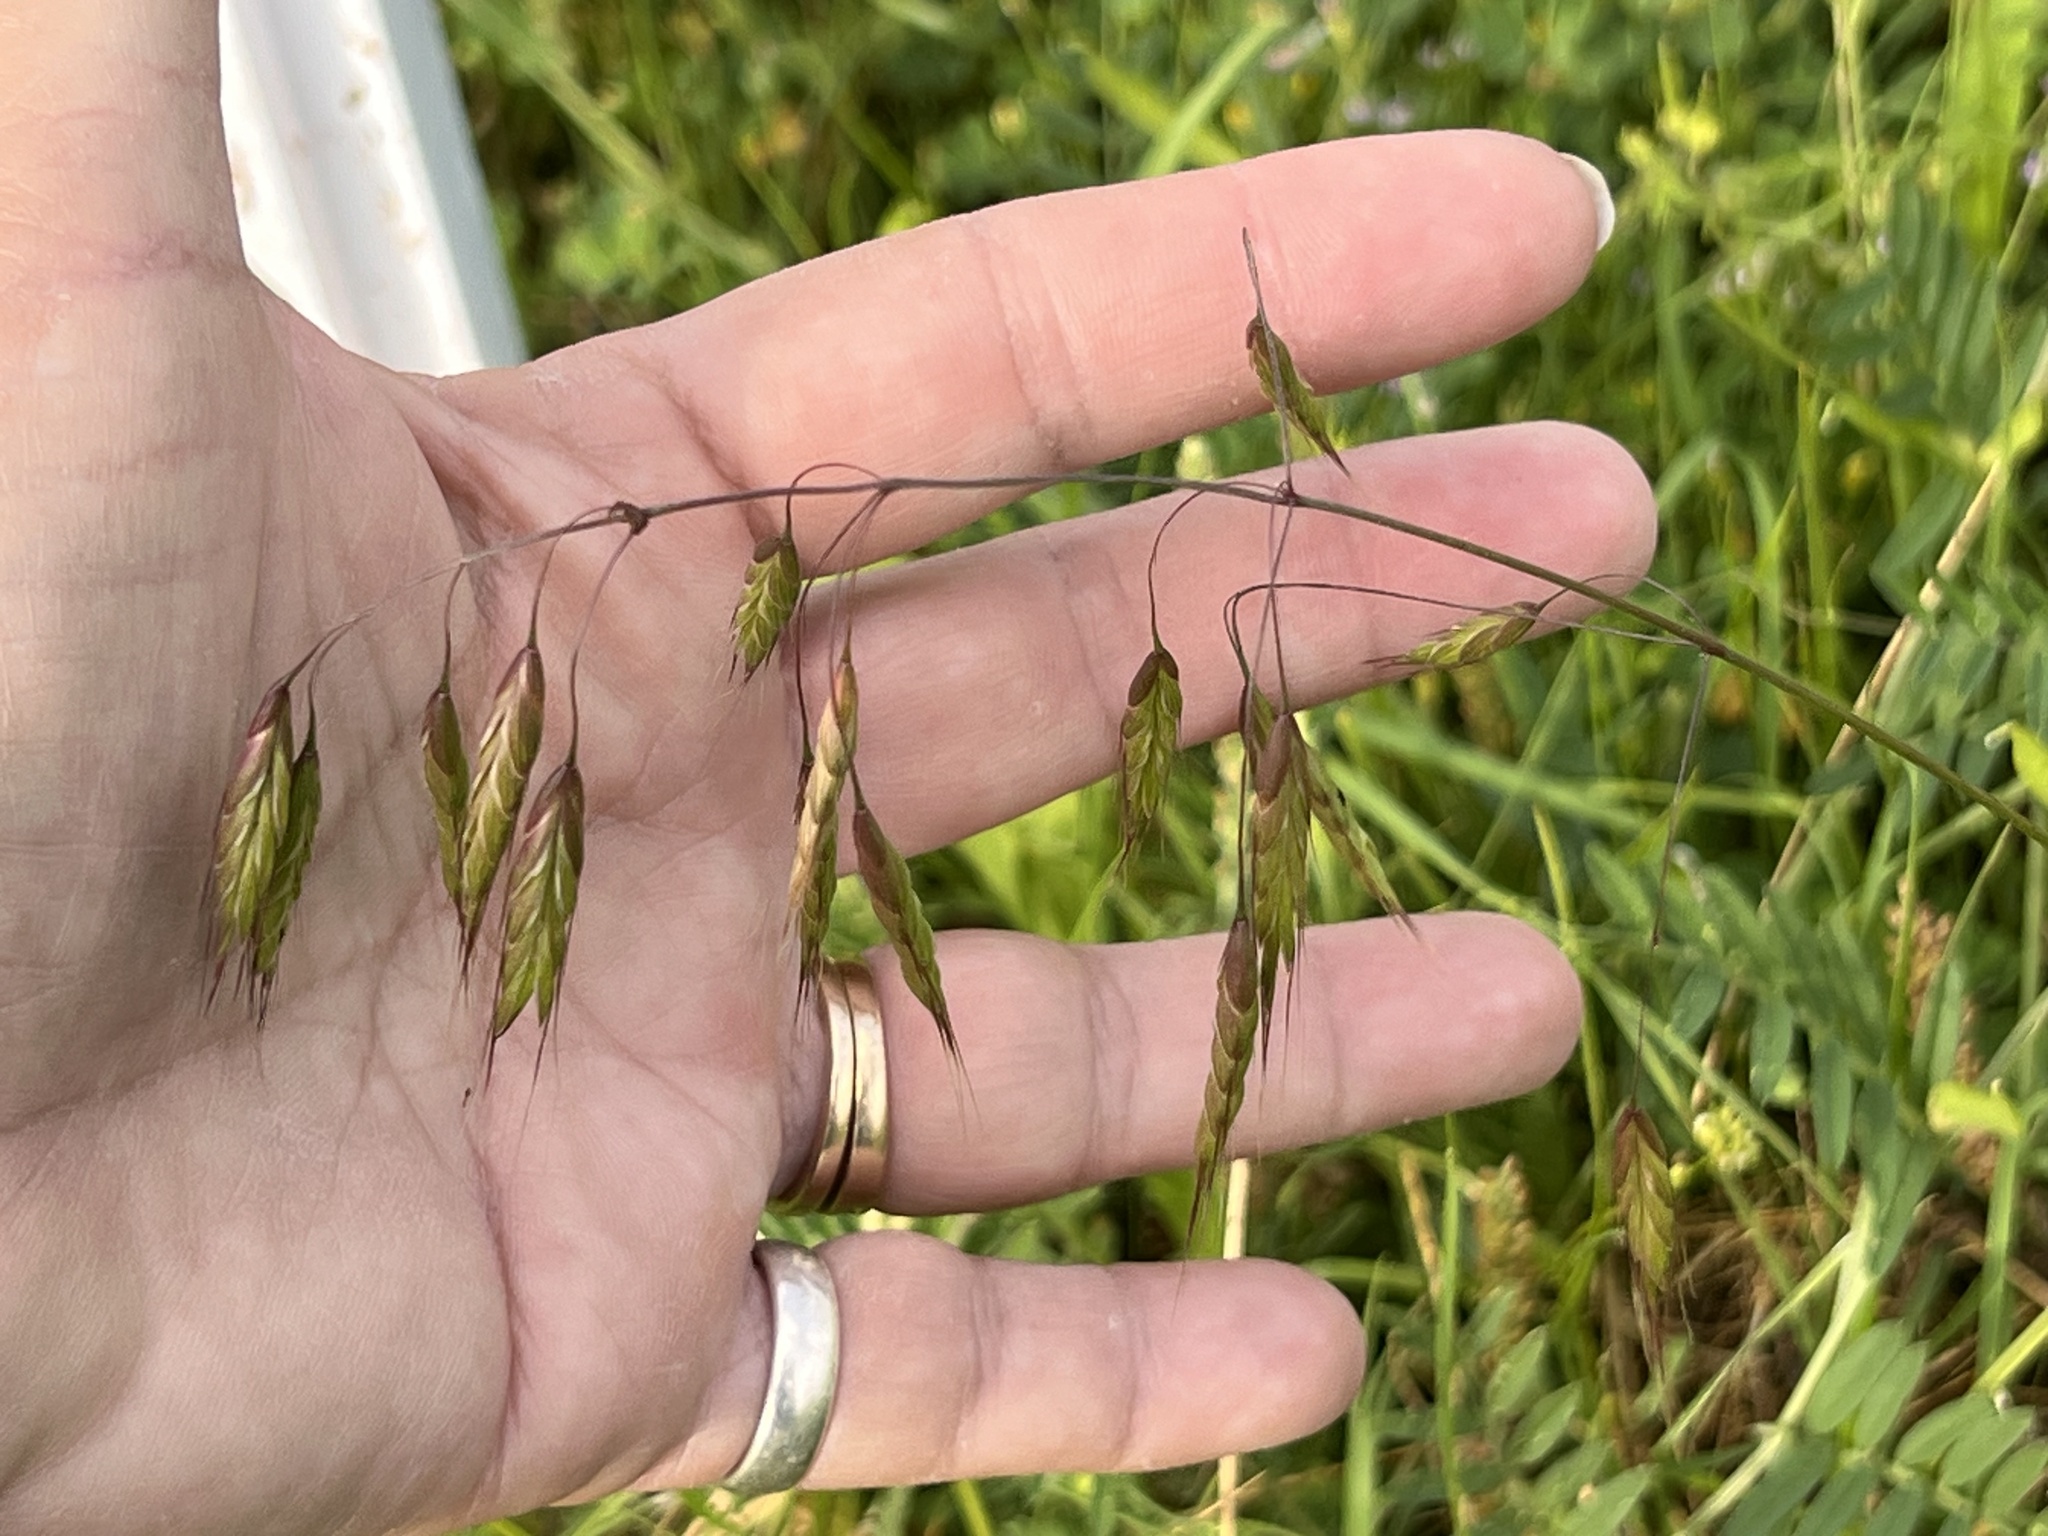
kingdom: Plantae
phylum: Tracheophyta
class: Liliopsida
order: Poales
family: Poaceae
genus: Bromus
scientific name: Bromus japonicus
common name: Japanese brome
